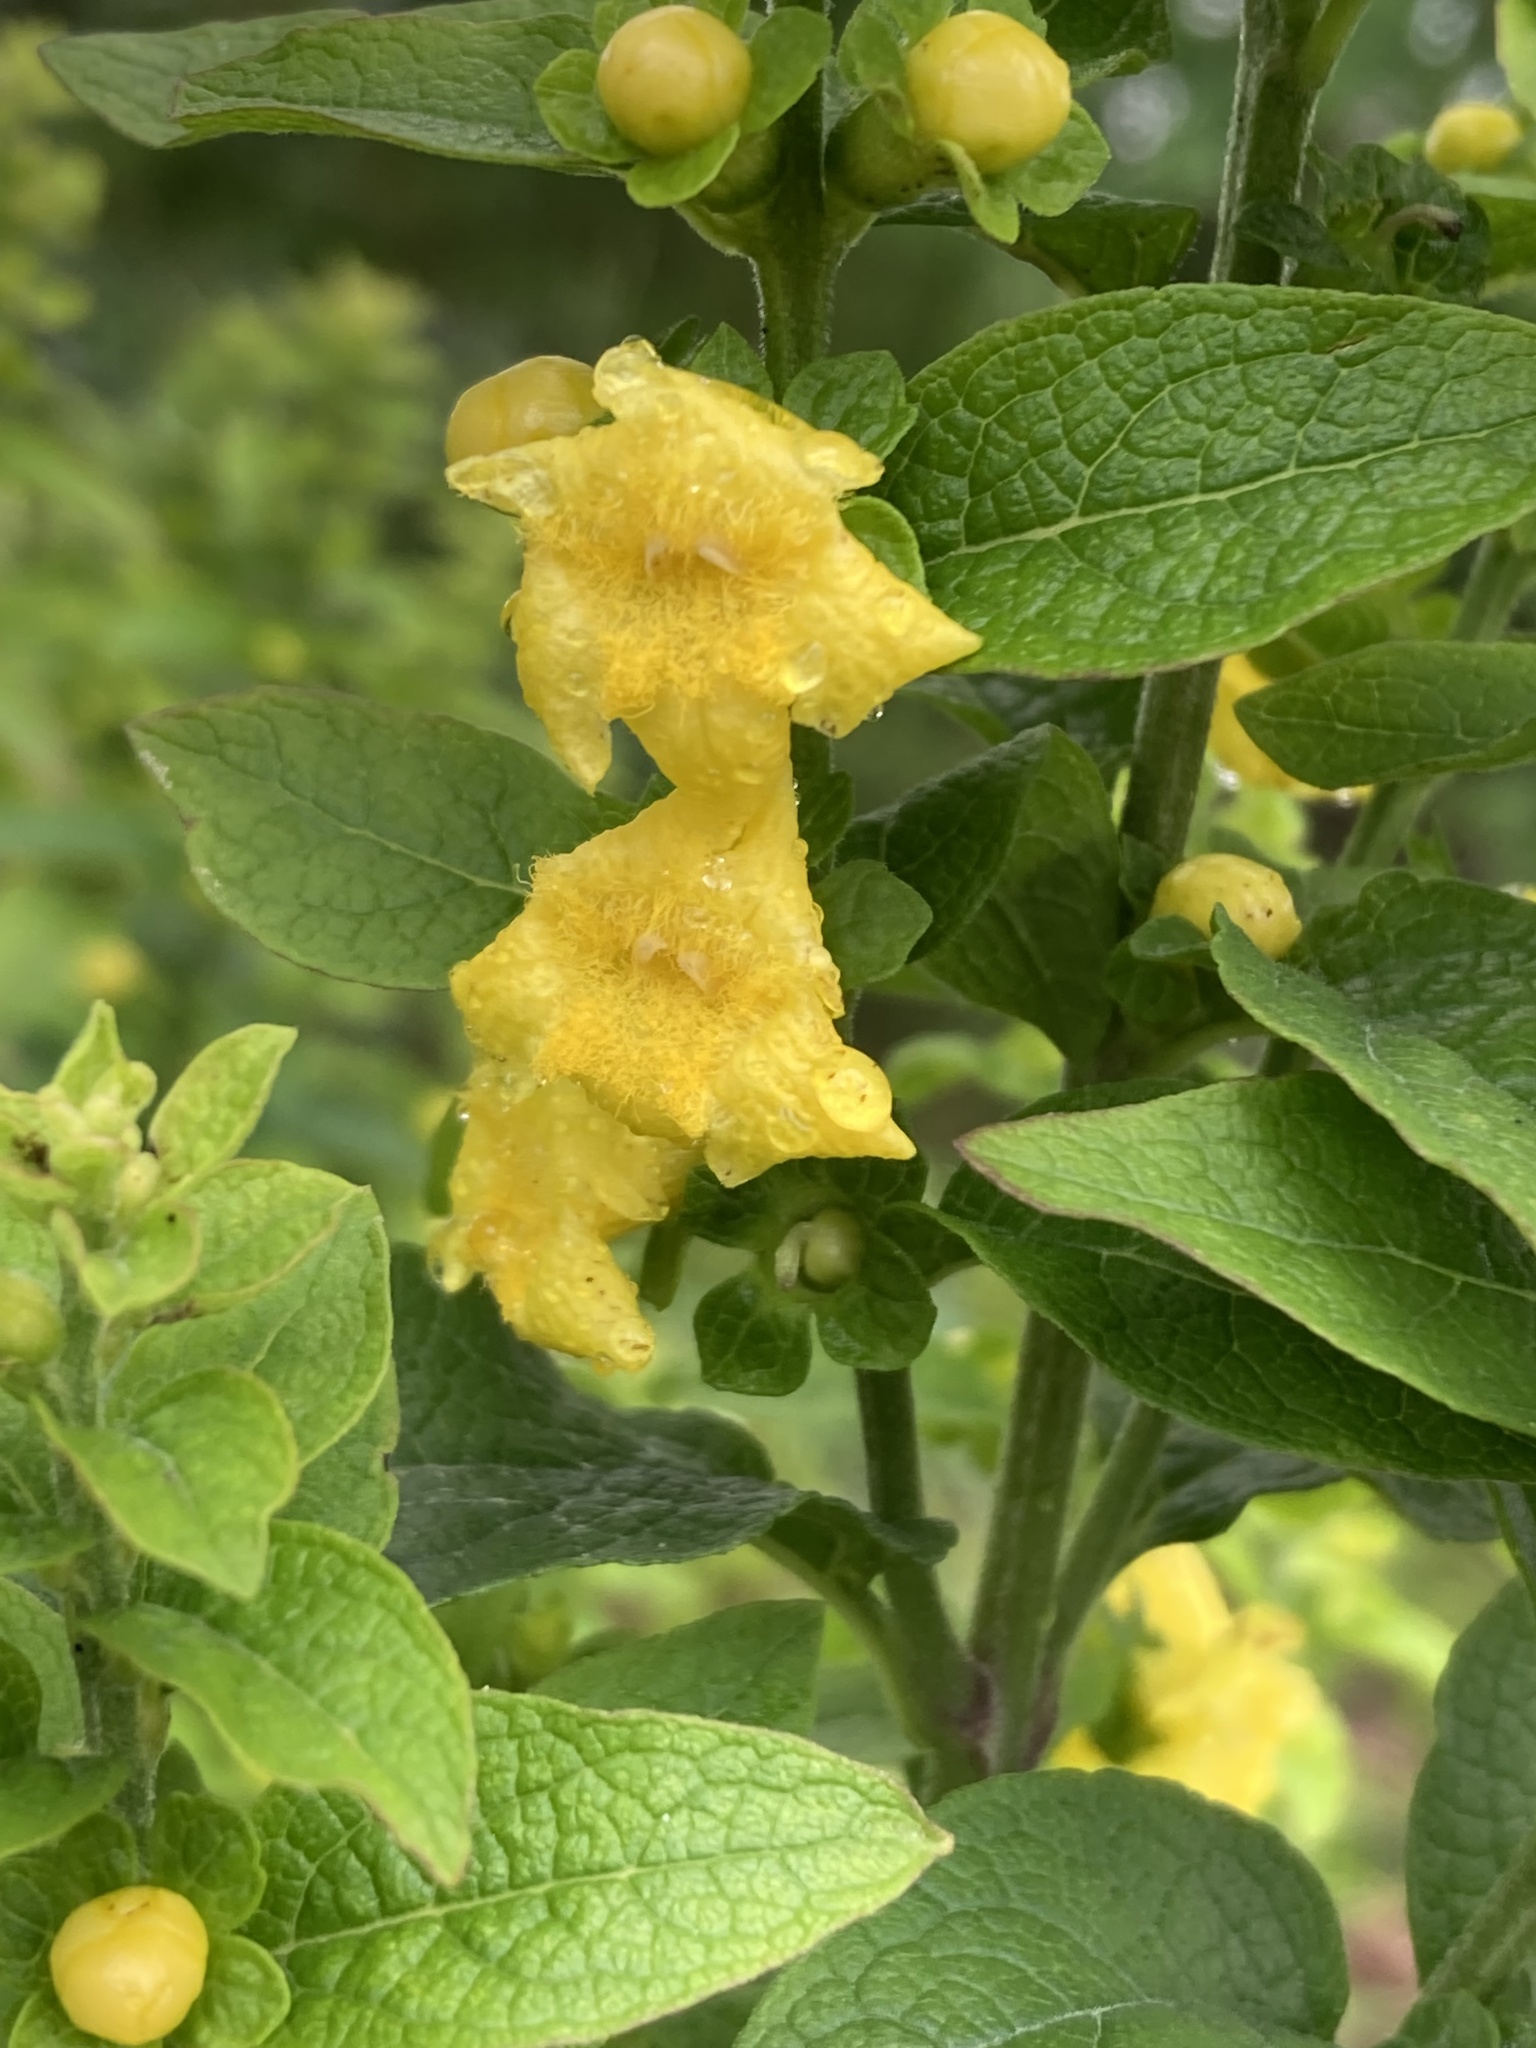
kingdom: Plantae
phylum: Tracheophyta
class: Magnoliopsida
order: Lamiales
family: Orobanchaceae
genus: Dasistoma
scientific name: Dasistoma macrophyllum
